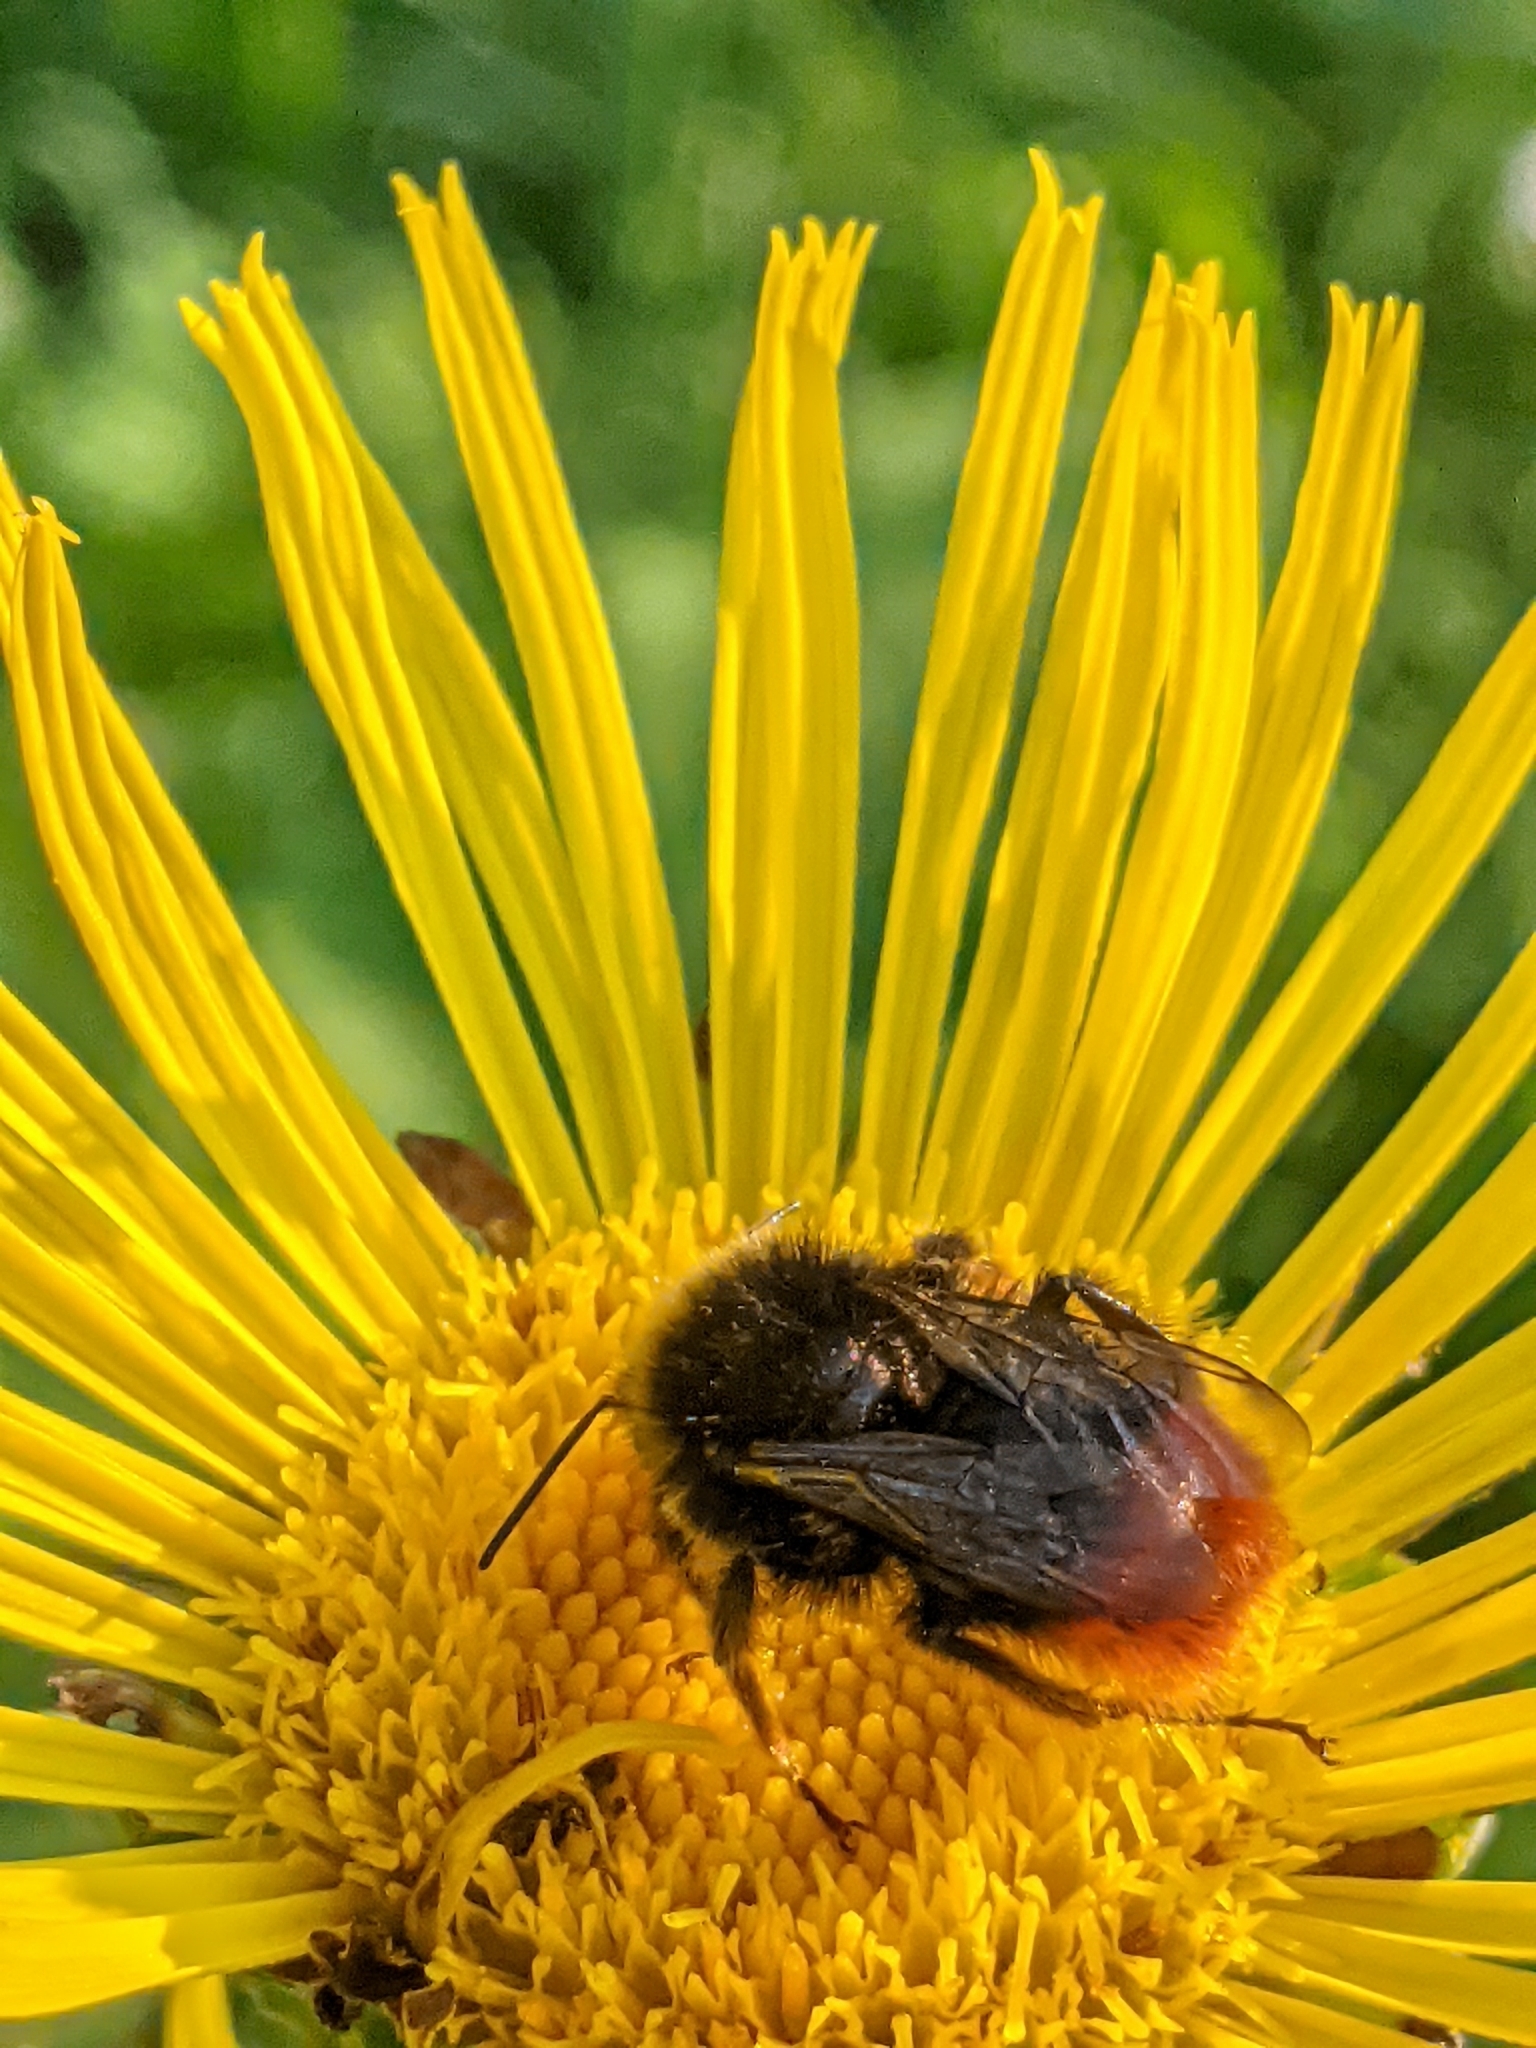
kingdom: Animalia
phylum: Arthropoda
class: Insecta
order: Hymenoptera
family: Apidae
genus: Bombus
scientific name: Bombus lapidarius
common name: Large red-tailed humble-bee
